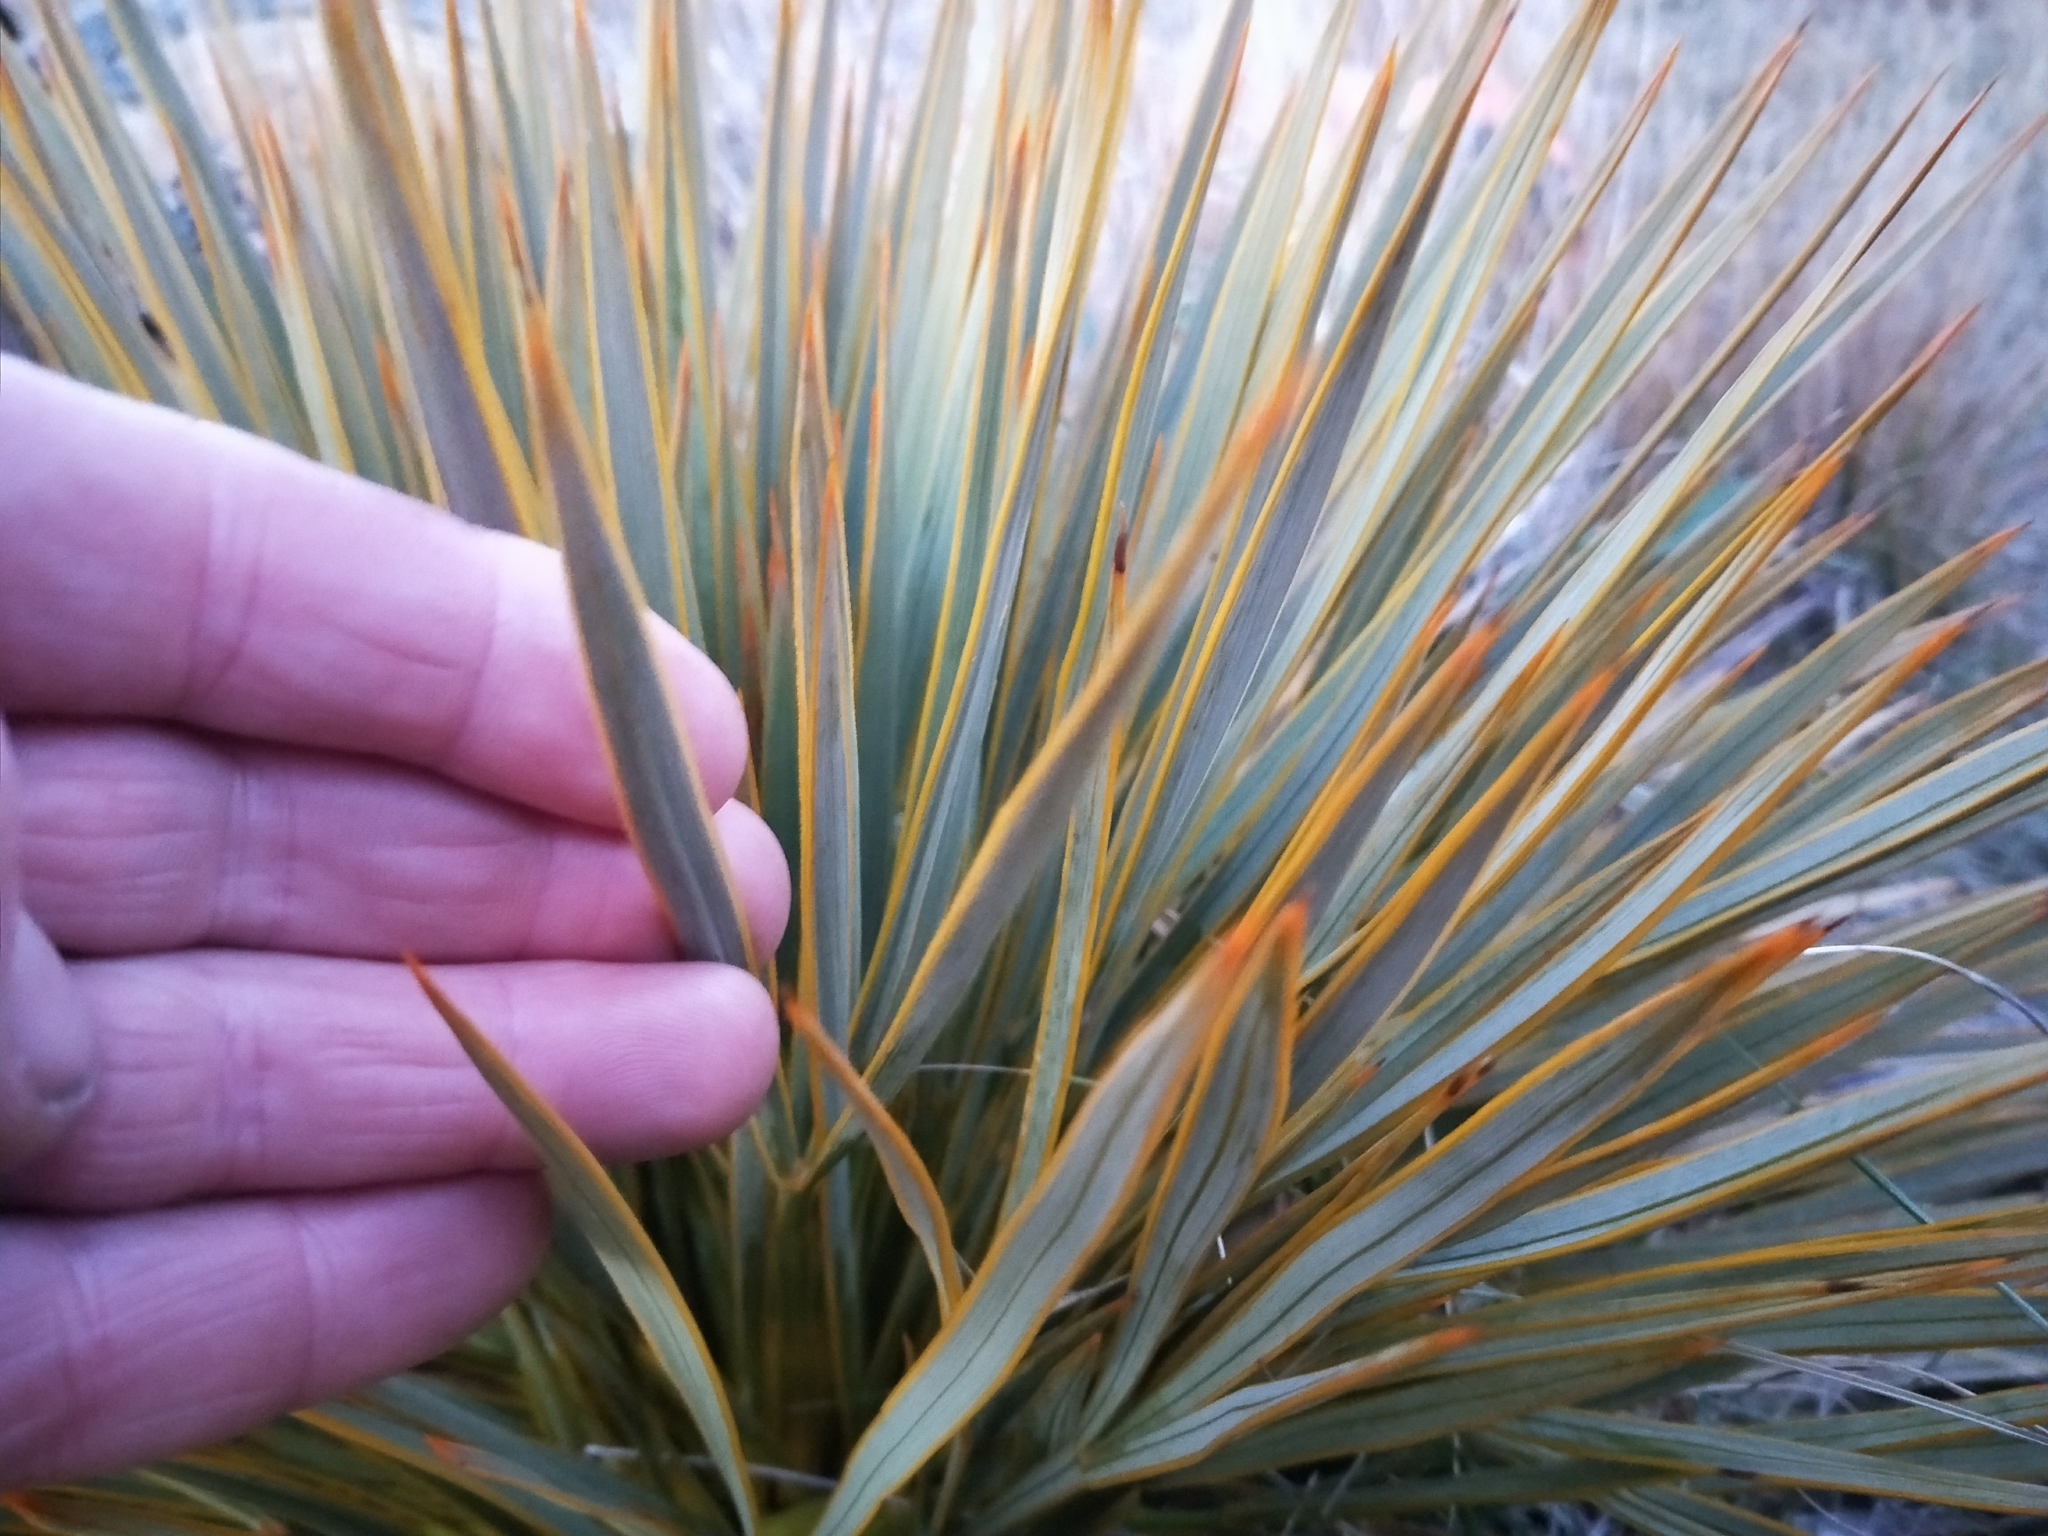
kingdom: Plantae
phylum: Tracheophyta
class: Magnoliopsida
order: Apiales
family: Apiaceae
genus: Aciphylla
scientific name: Aciphylla aurea
